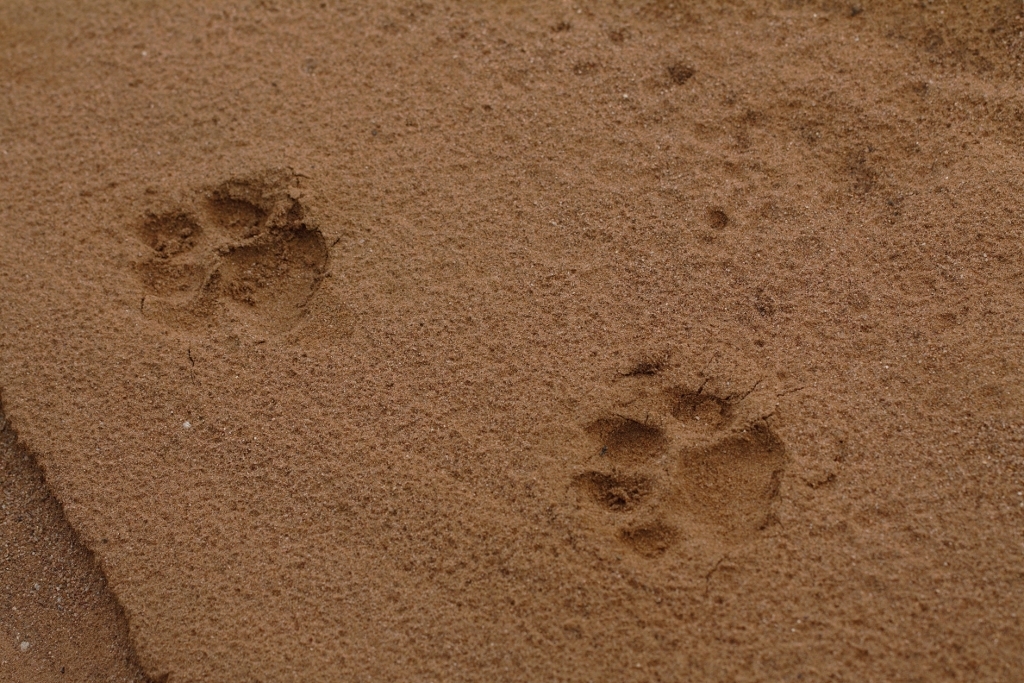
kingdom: Animalia
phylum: Chordata
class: Mammalia
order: Carnivora
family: Felidae
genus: Panthera
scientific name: Panthera pardus
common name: Leopard
